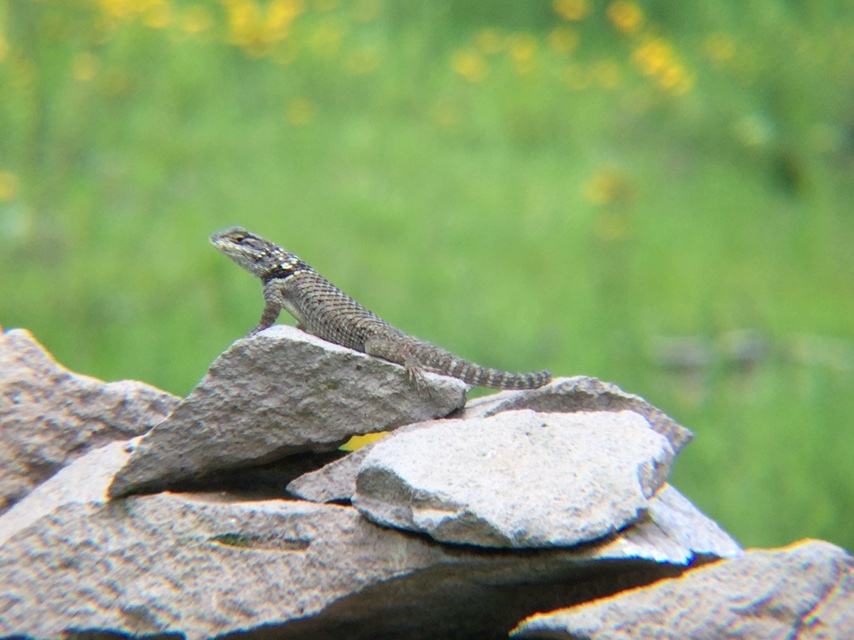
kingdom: Animalia
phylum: Chordata
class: Squamata
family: Phrynosomatidae
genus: Sceloporus
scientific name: Sceloporus torquatus
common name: Central plateau torquate lizard [melanogaster]
